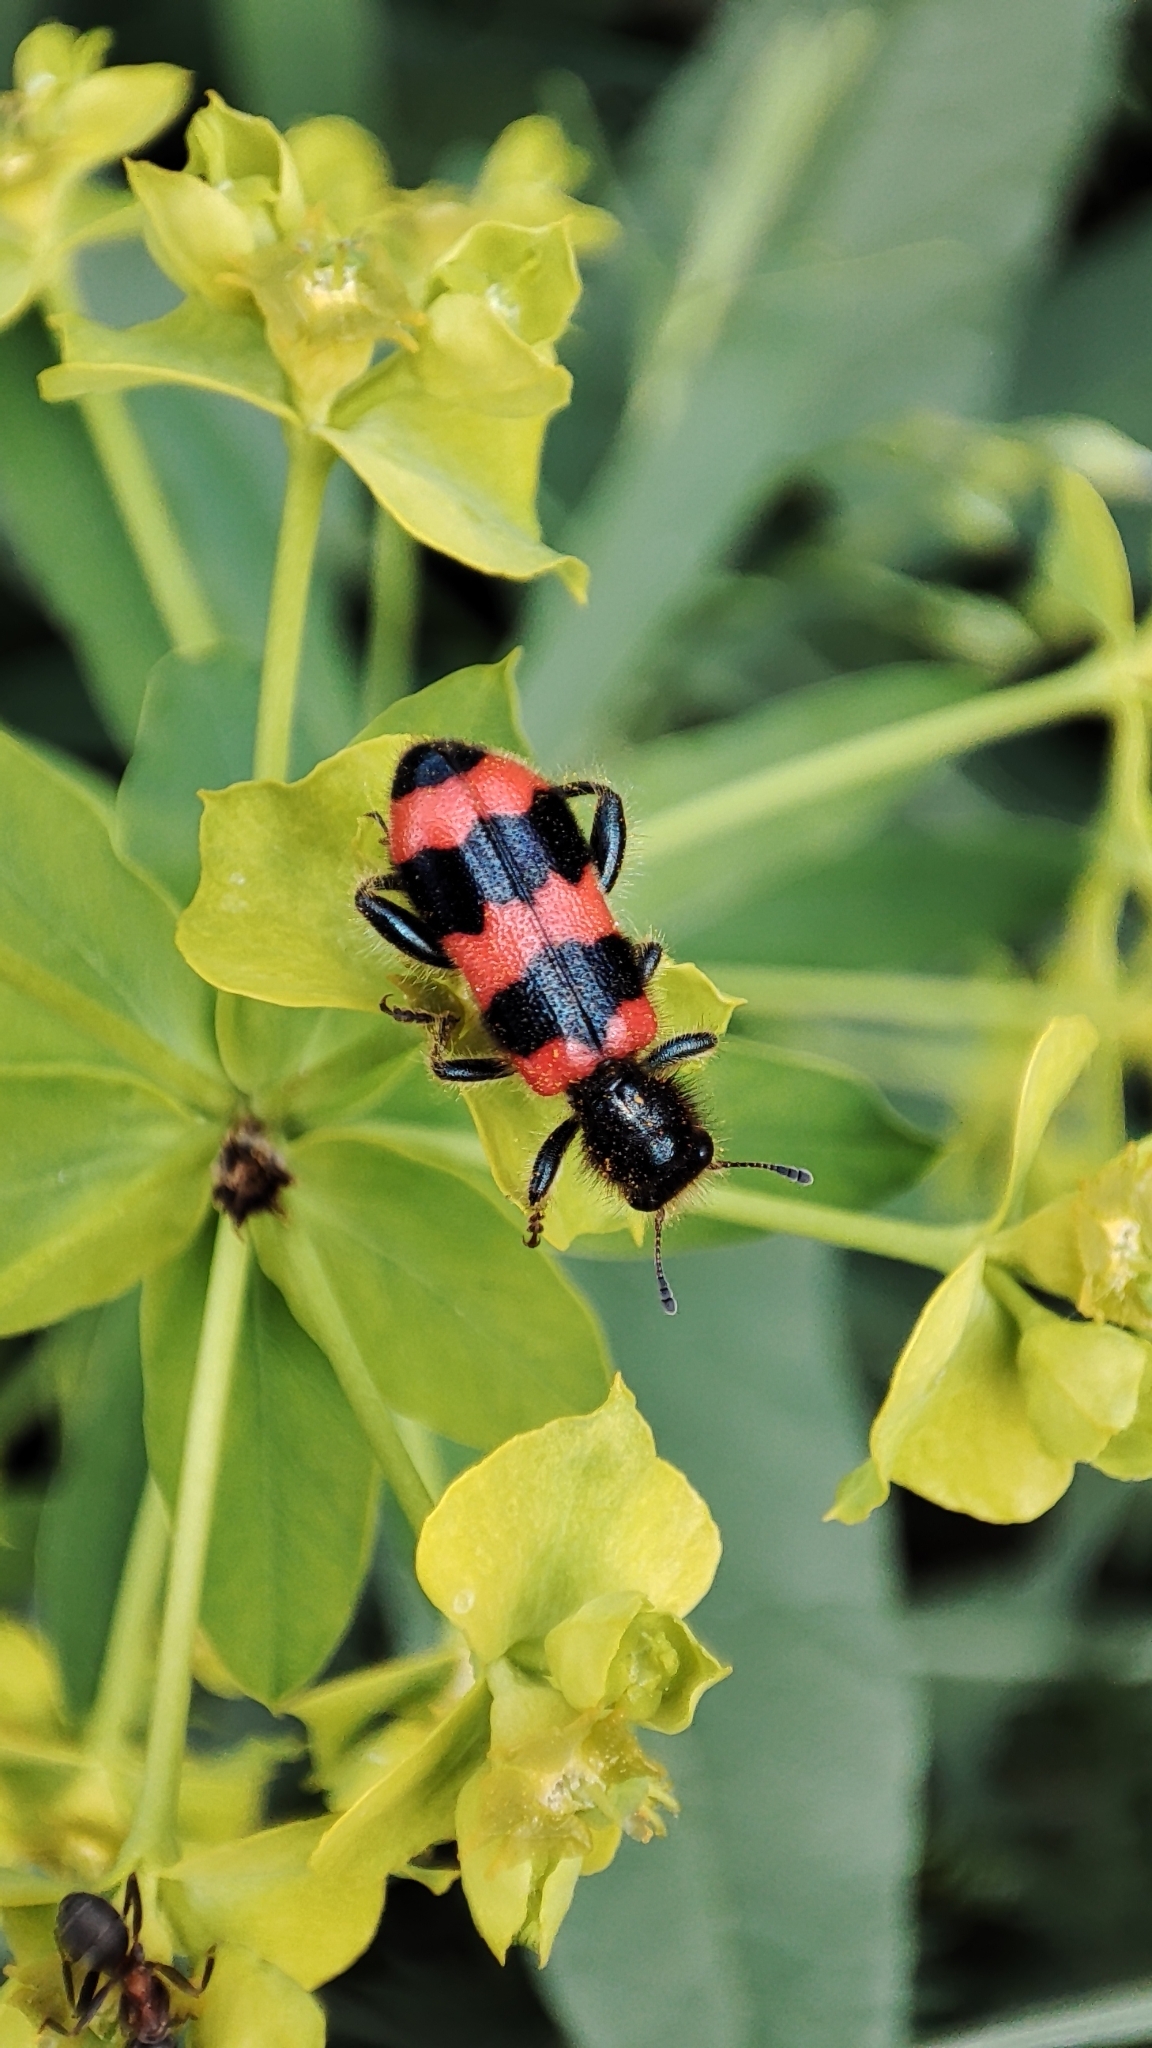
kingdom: Animalia
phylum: Arthropoda
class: Insecta
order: Coleoptera
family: Cleridae
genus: Trichodes
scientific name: Trichodes apiarius
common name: Bee-eating beetle
